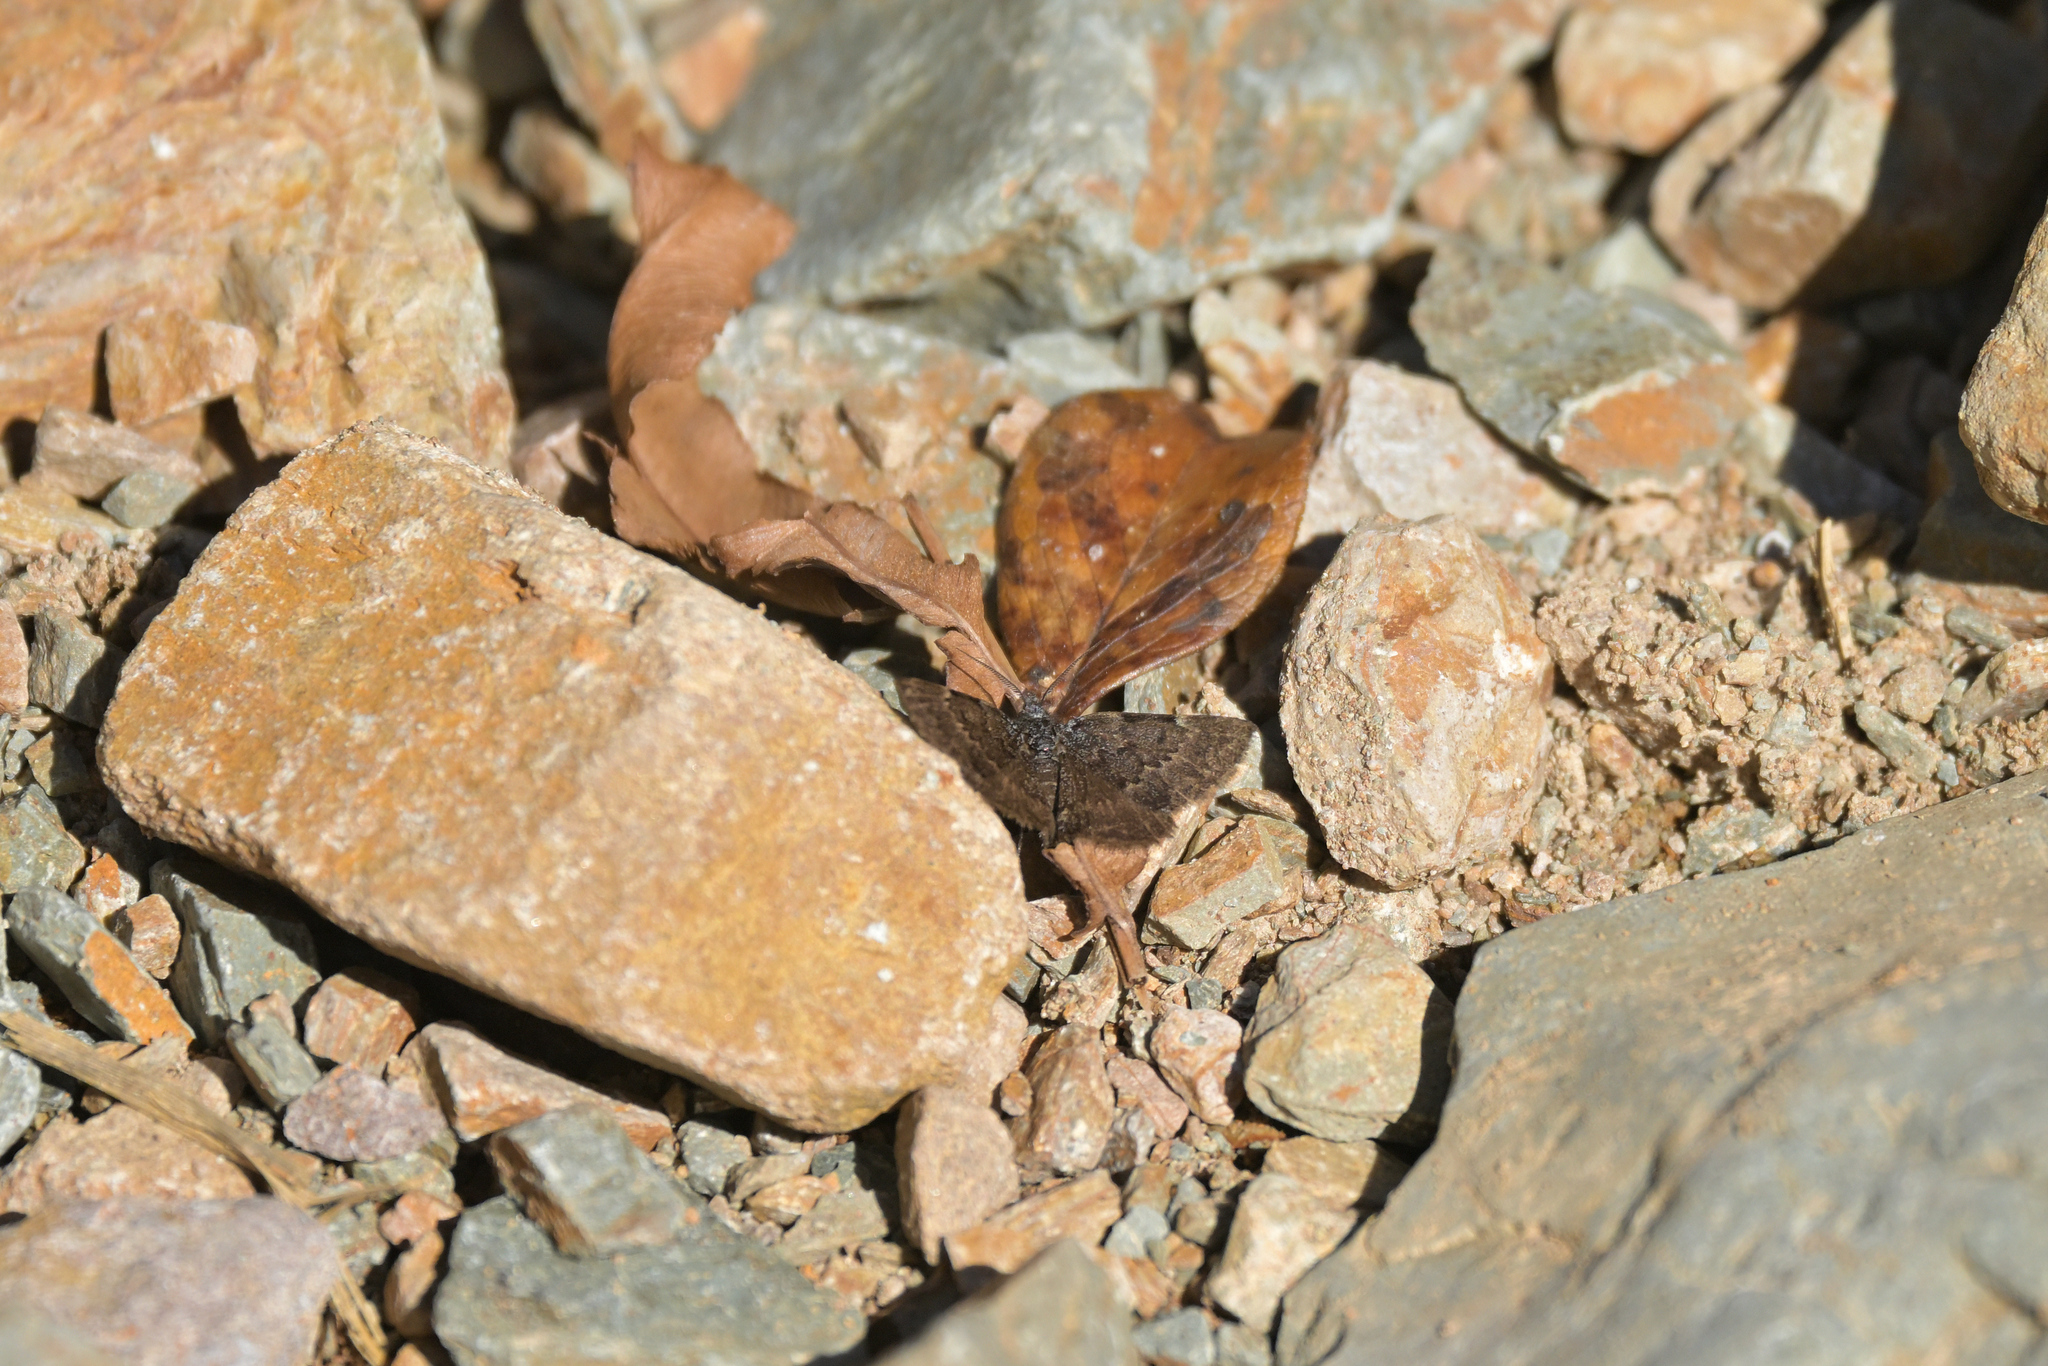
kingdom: Animalia
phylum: Arthropoda
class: Insecta
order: Lepidoptera
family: Geometridae
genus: Dichromodes
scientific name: Dichromodes niger
